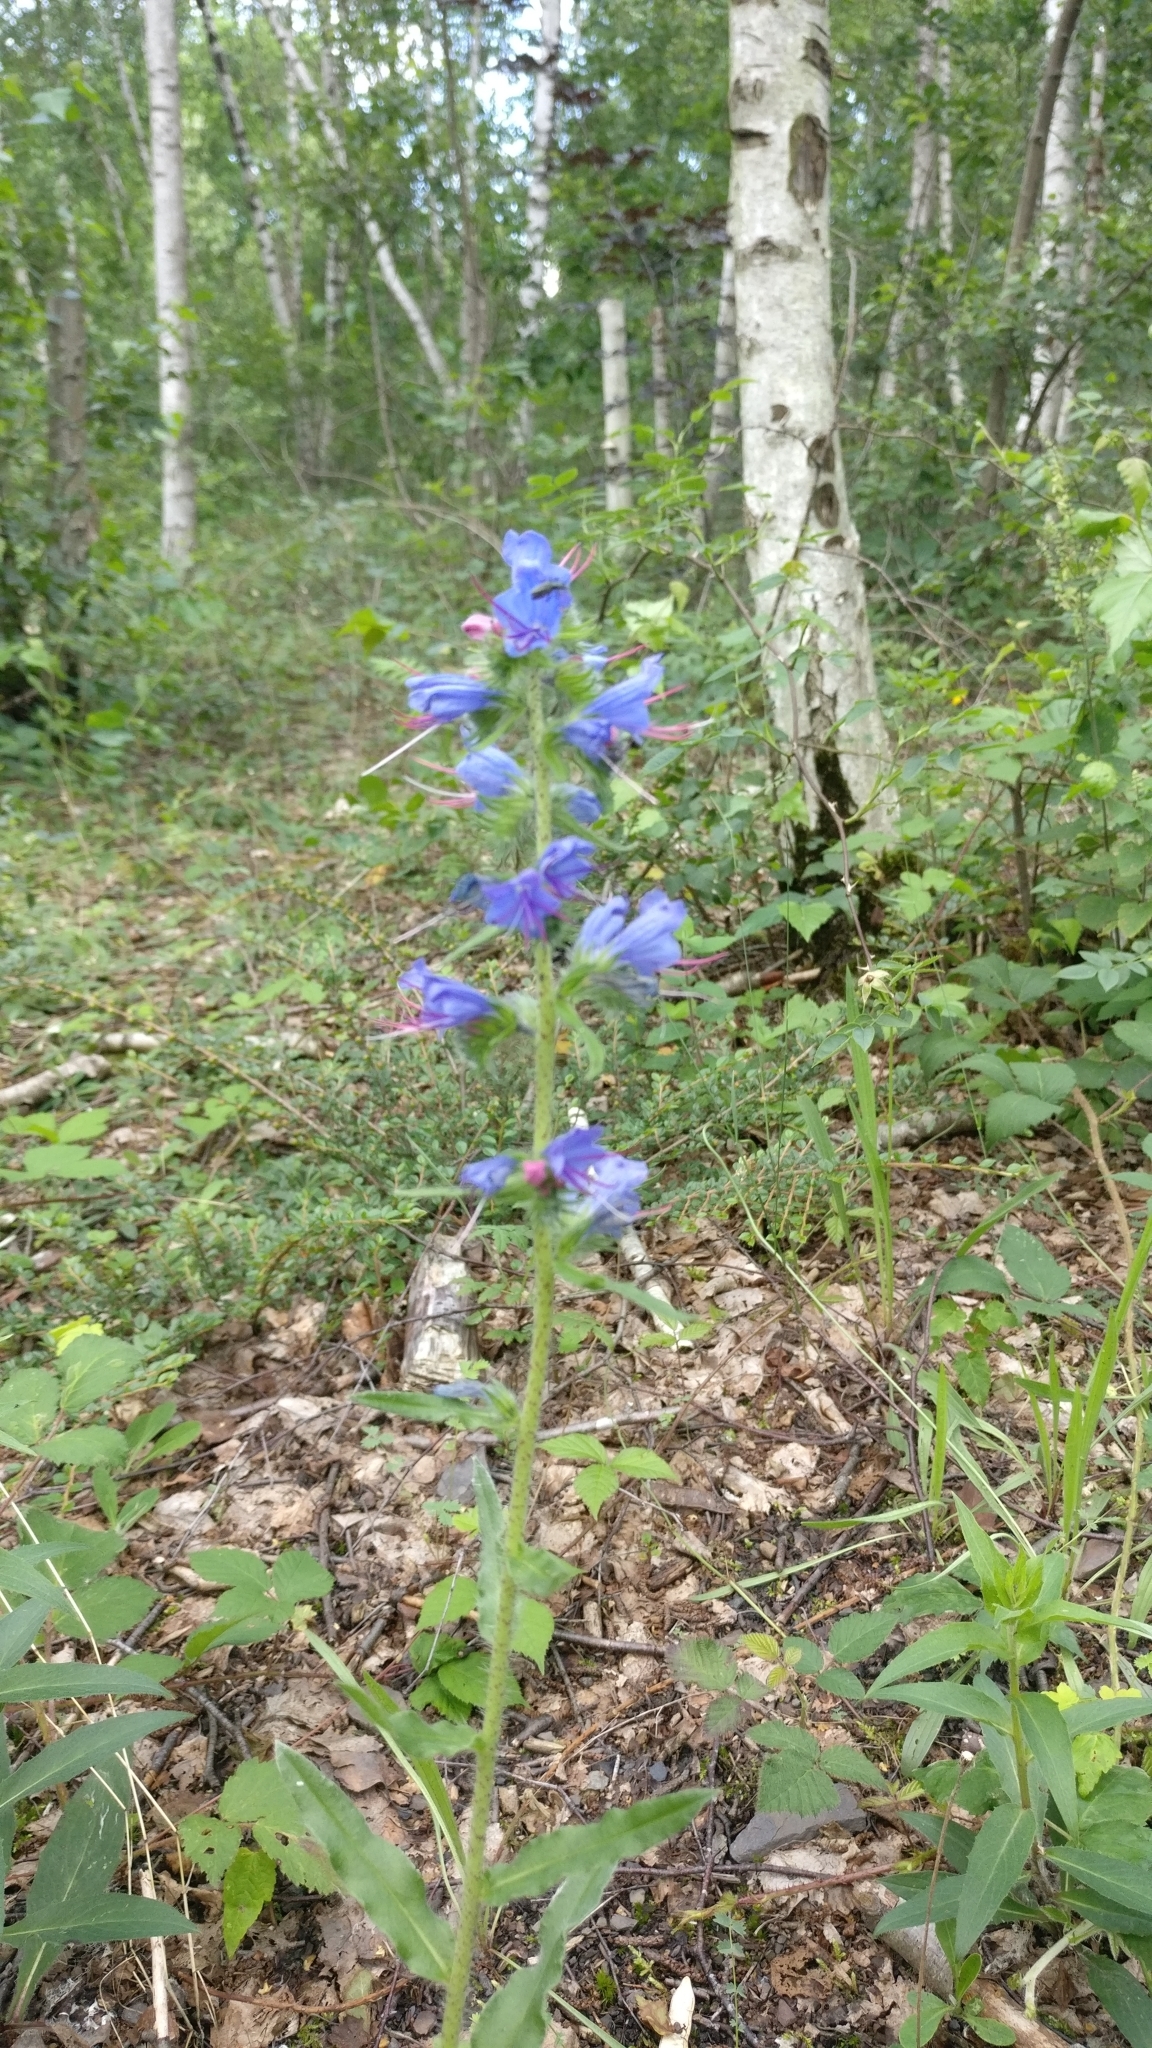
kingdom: Plantae
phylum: Tracheophyta
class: Magnoliopsida
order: Boraginales
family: Boraginaceae
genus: Echium
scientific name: Echium vulgare
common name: Common viper's bugloss
